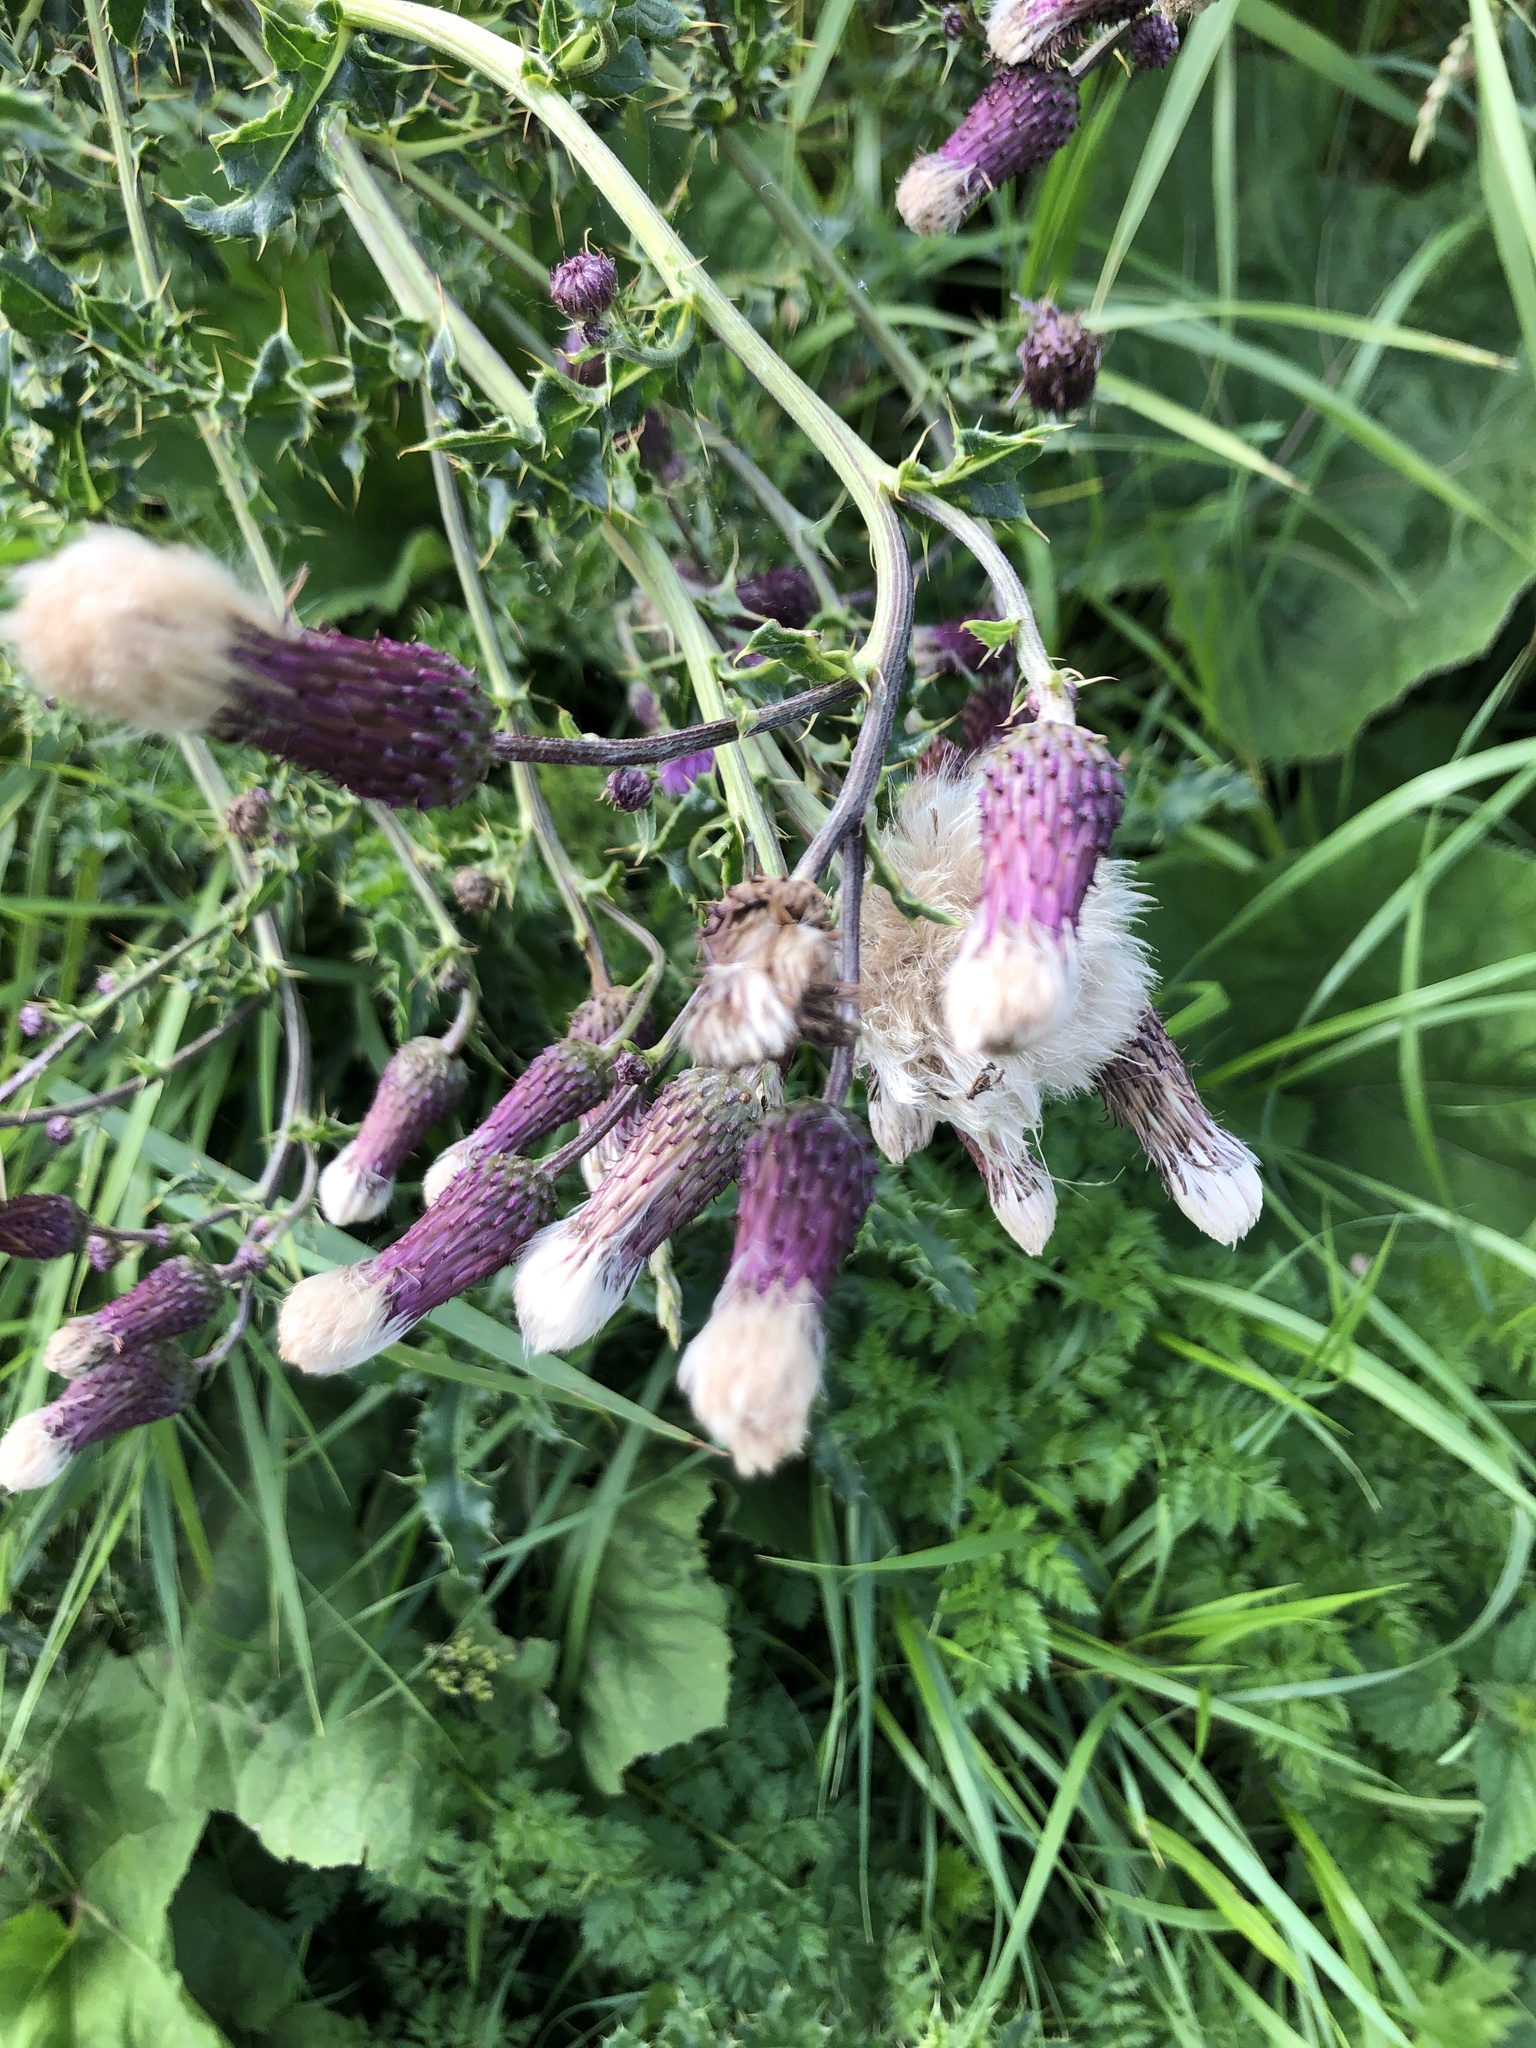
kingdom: Plantae
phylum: Tracheophyta
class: Magnoliopsida
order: Asterales
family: Asteraceae
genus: Cirsium
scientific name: Cirsium arvense
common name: Creeping thistle
